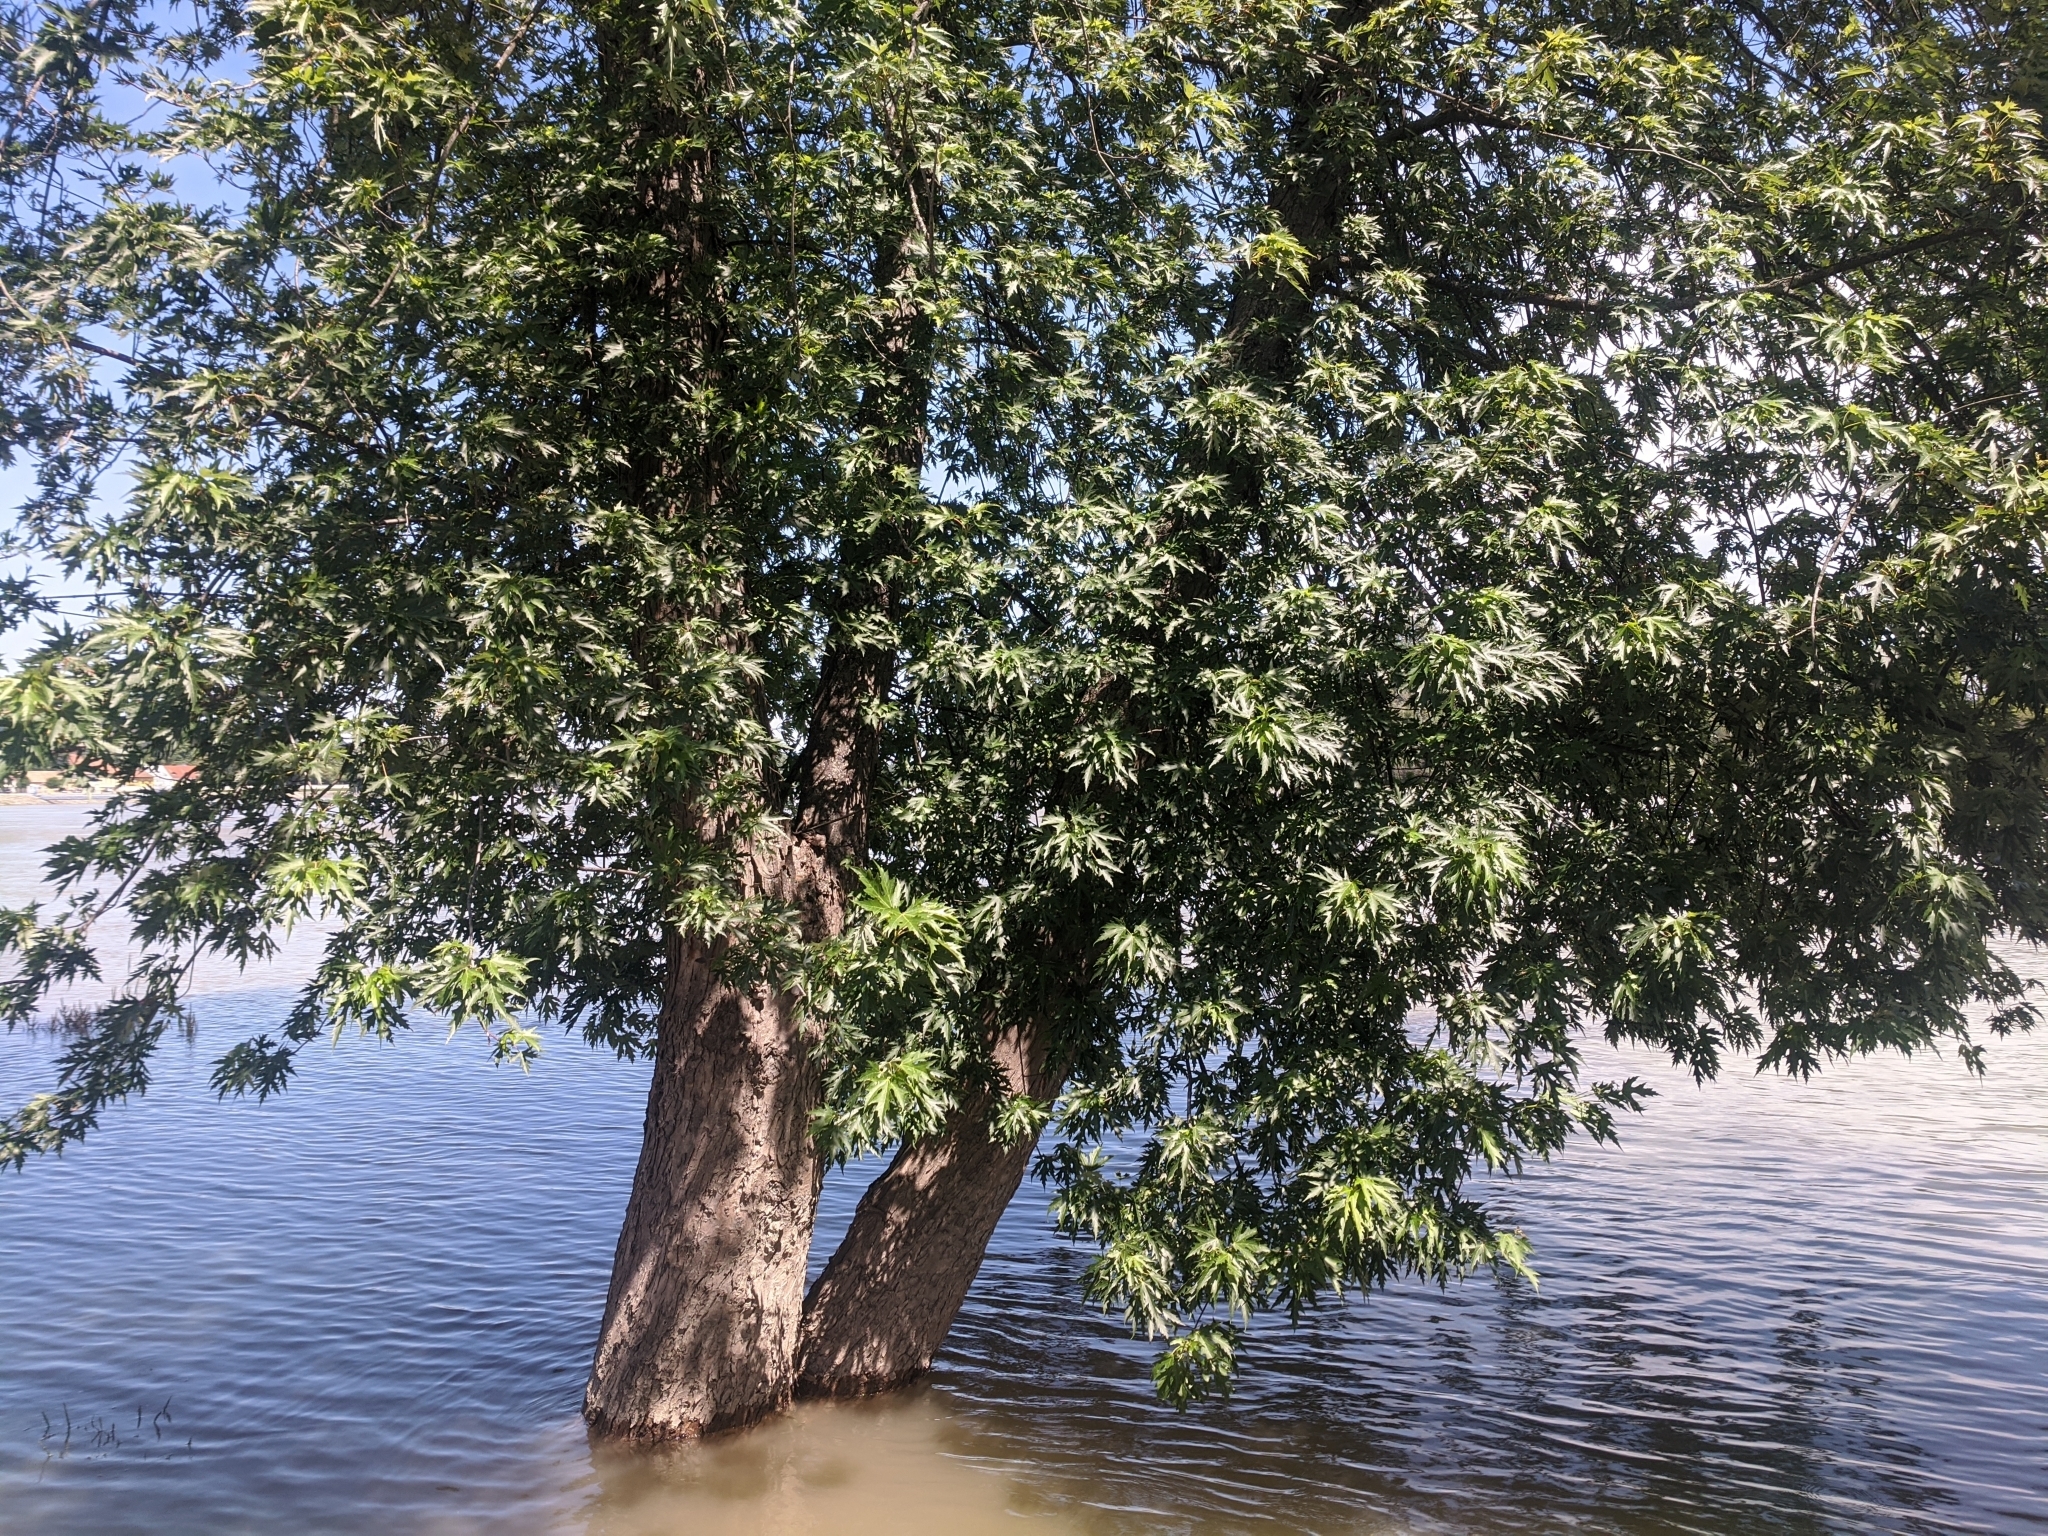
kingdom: Plantae
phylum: Tracheophyta
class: Magnoliopsida
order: Sapindales
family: Sapindaceae
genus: Acer
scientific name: Acer saccharinum
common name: Silver maple
